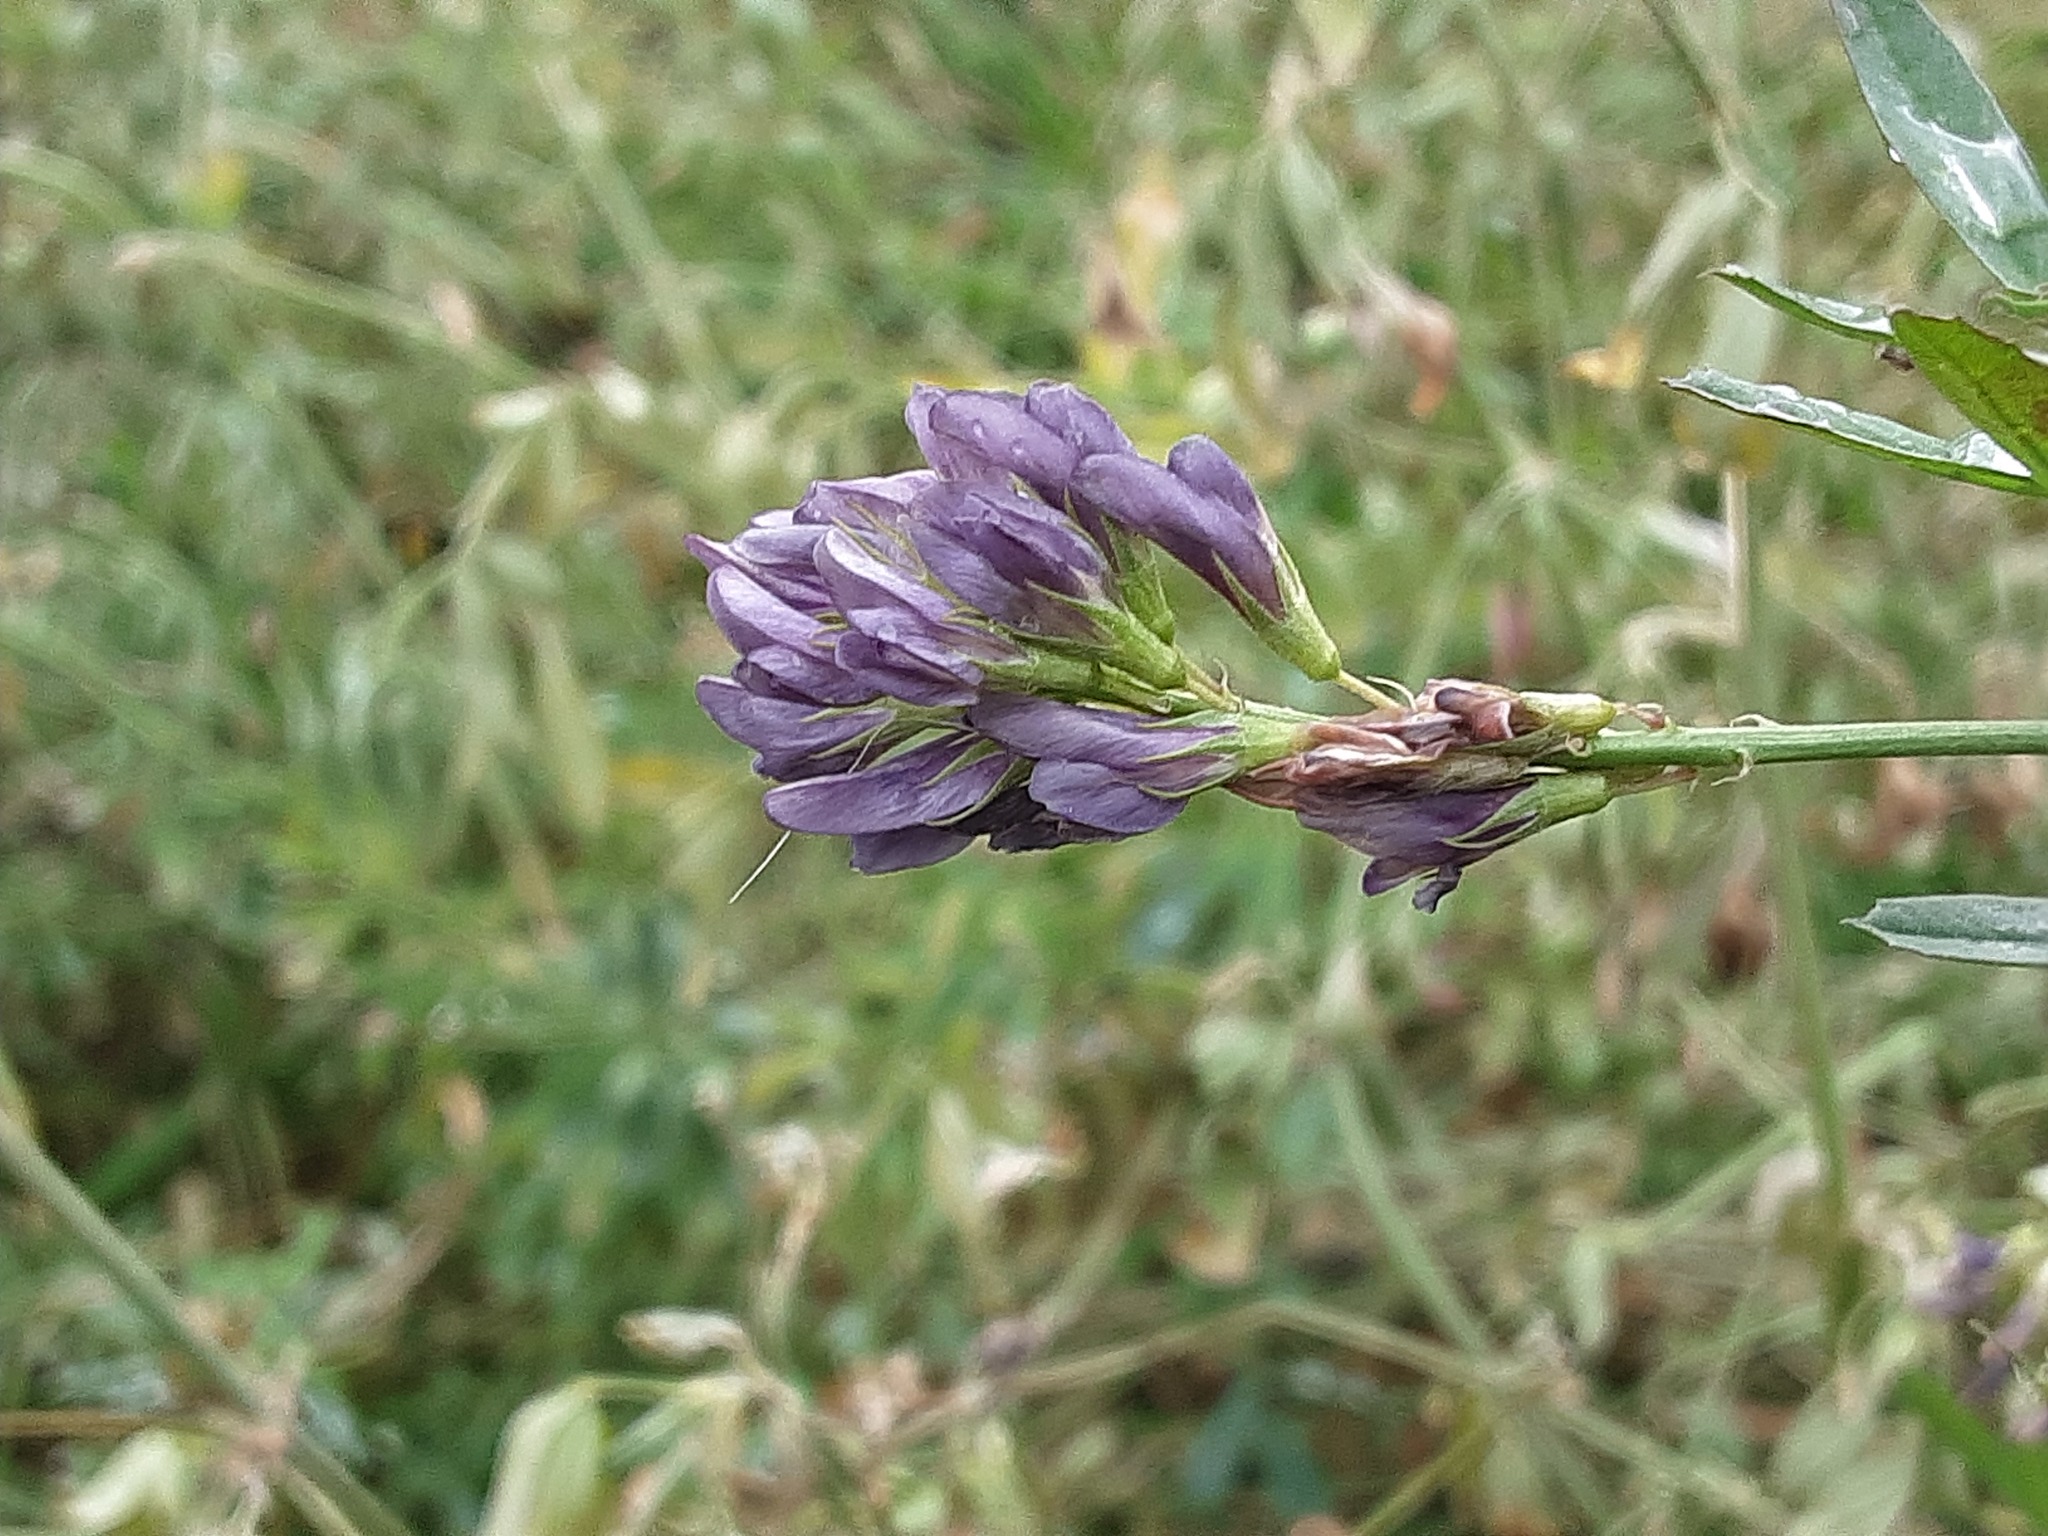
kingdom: Plantae
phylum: Tracheophyta
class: Magnoliopsida
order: Fabales
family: Fabaceae
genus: Medicago
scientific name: Medicago sativa
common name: Alfalfa
